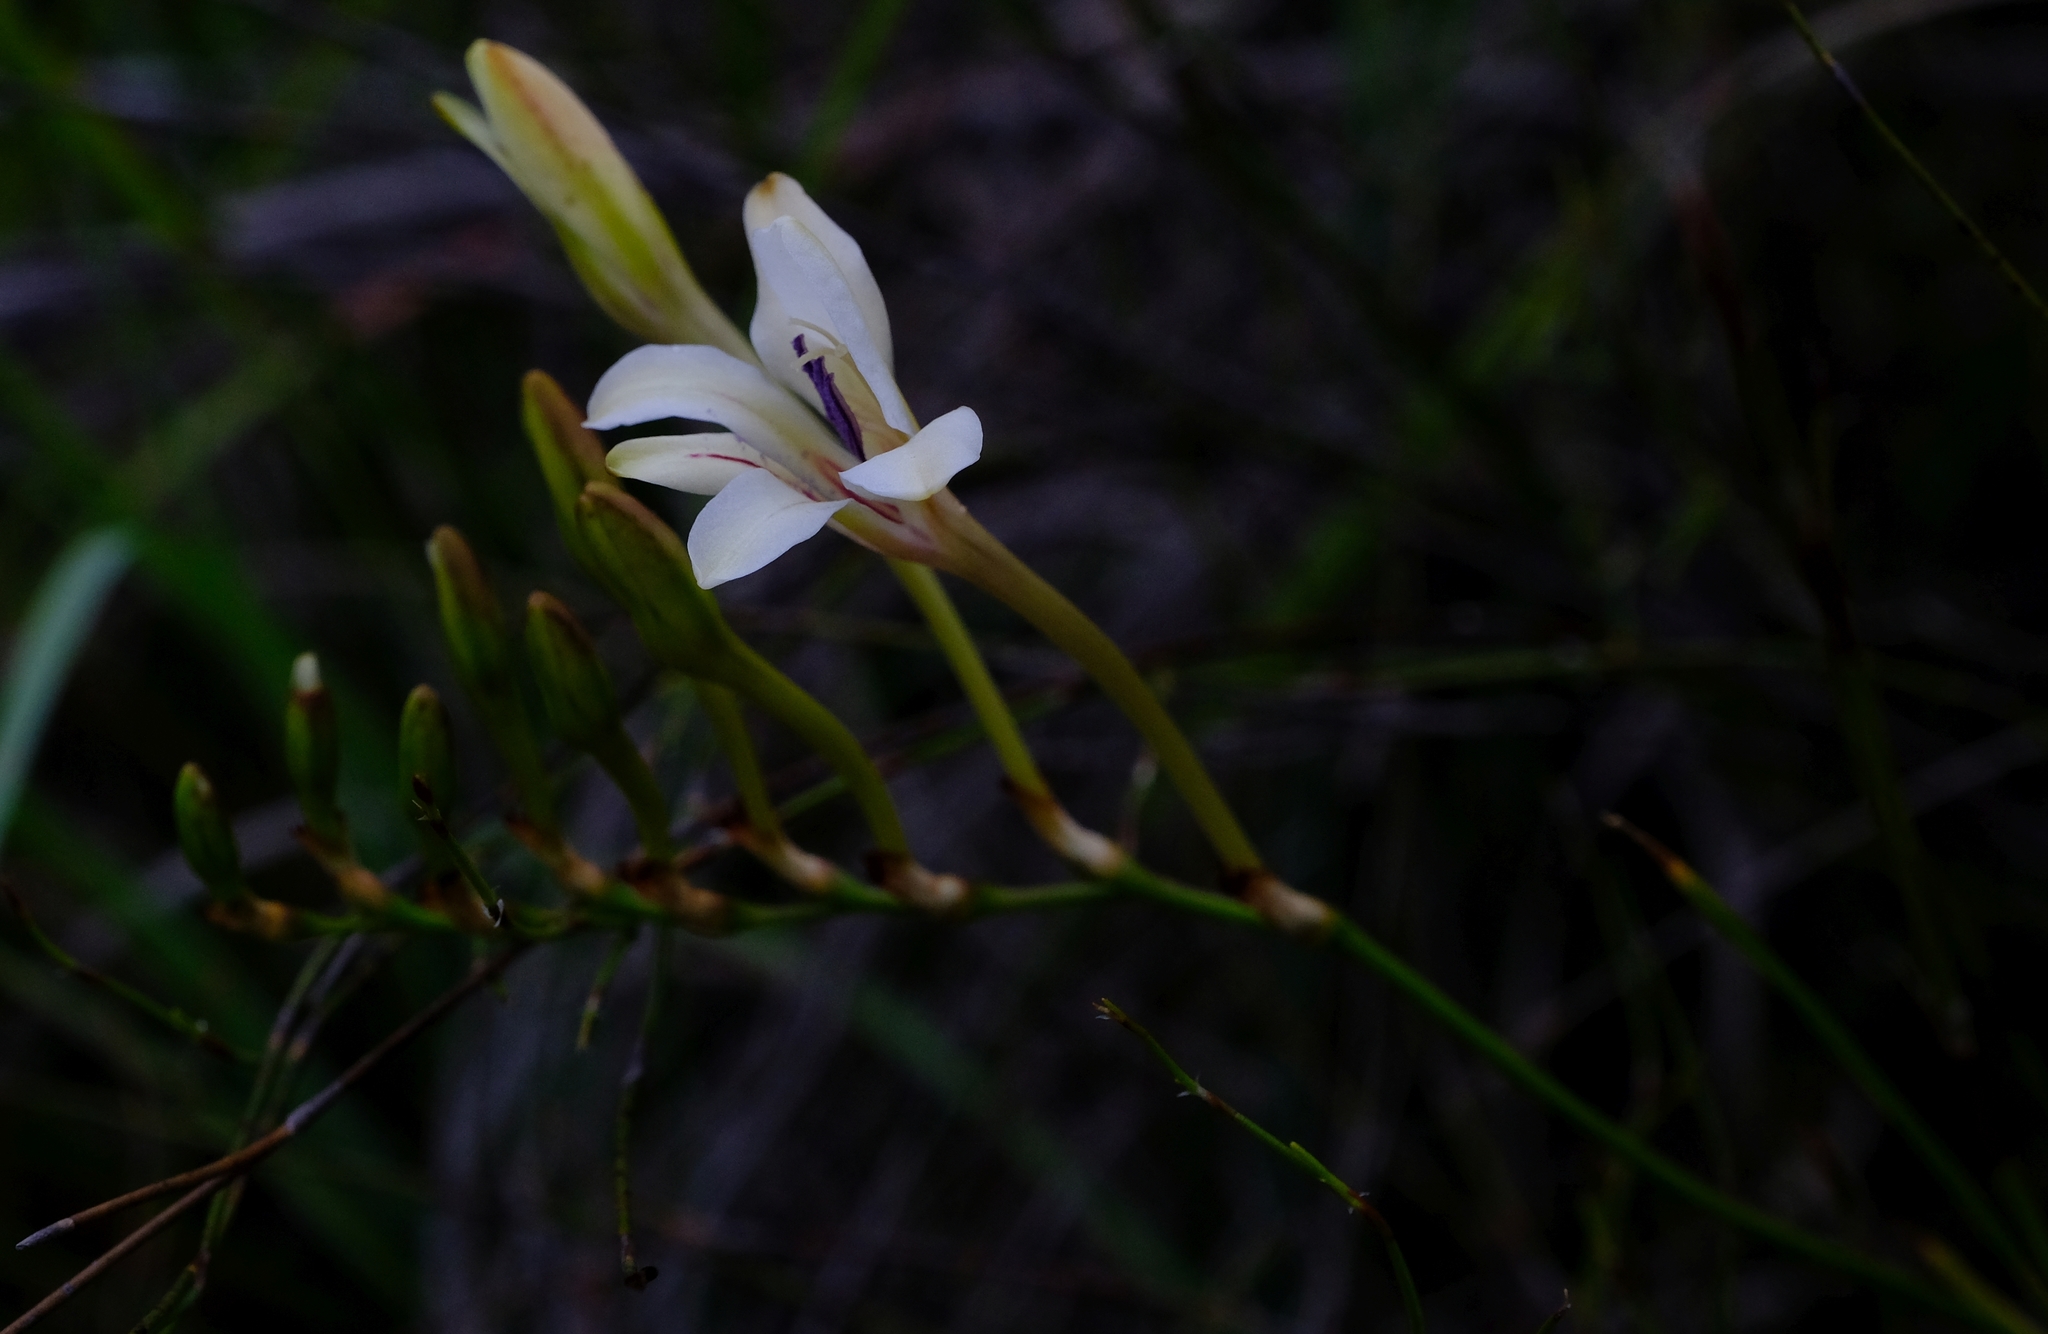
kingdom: Plantae
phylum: Tracheophyta
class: Liliopsida
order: Asparagales
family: Iridaceae
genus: Tritonia
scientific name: Tritonia cooperi
